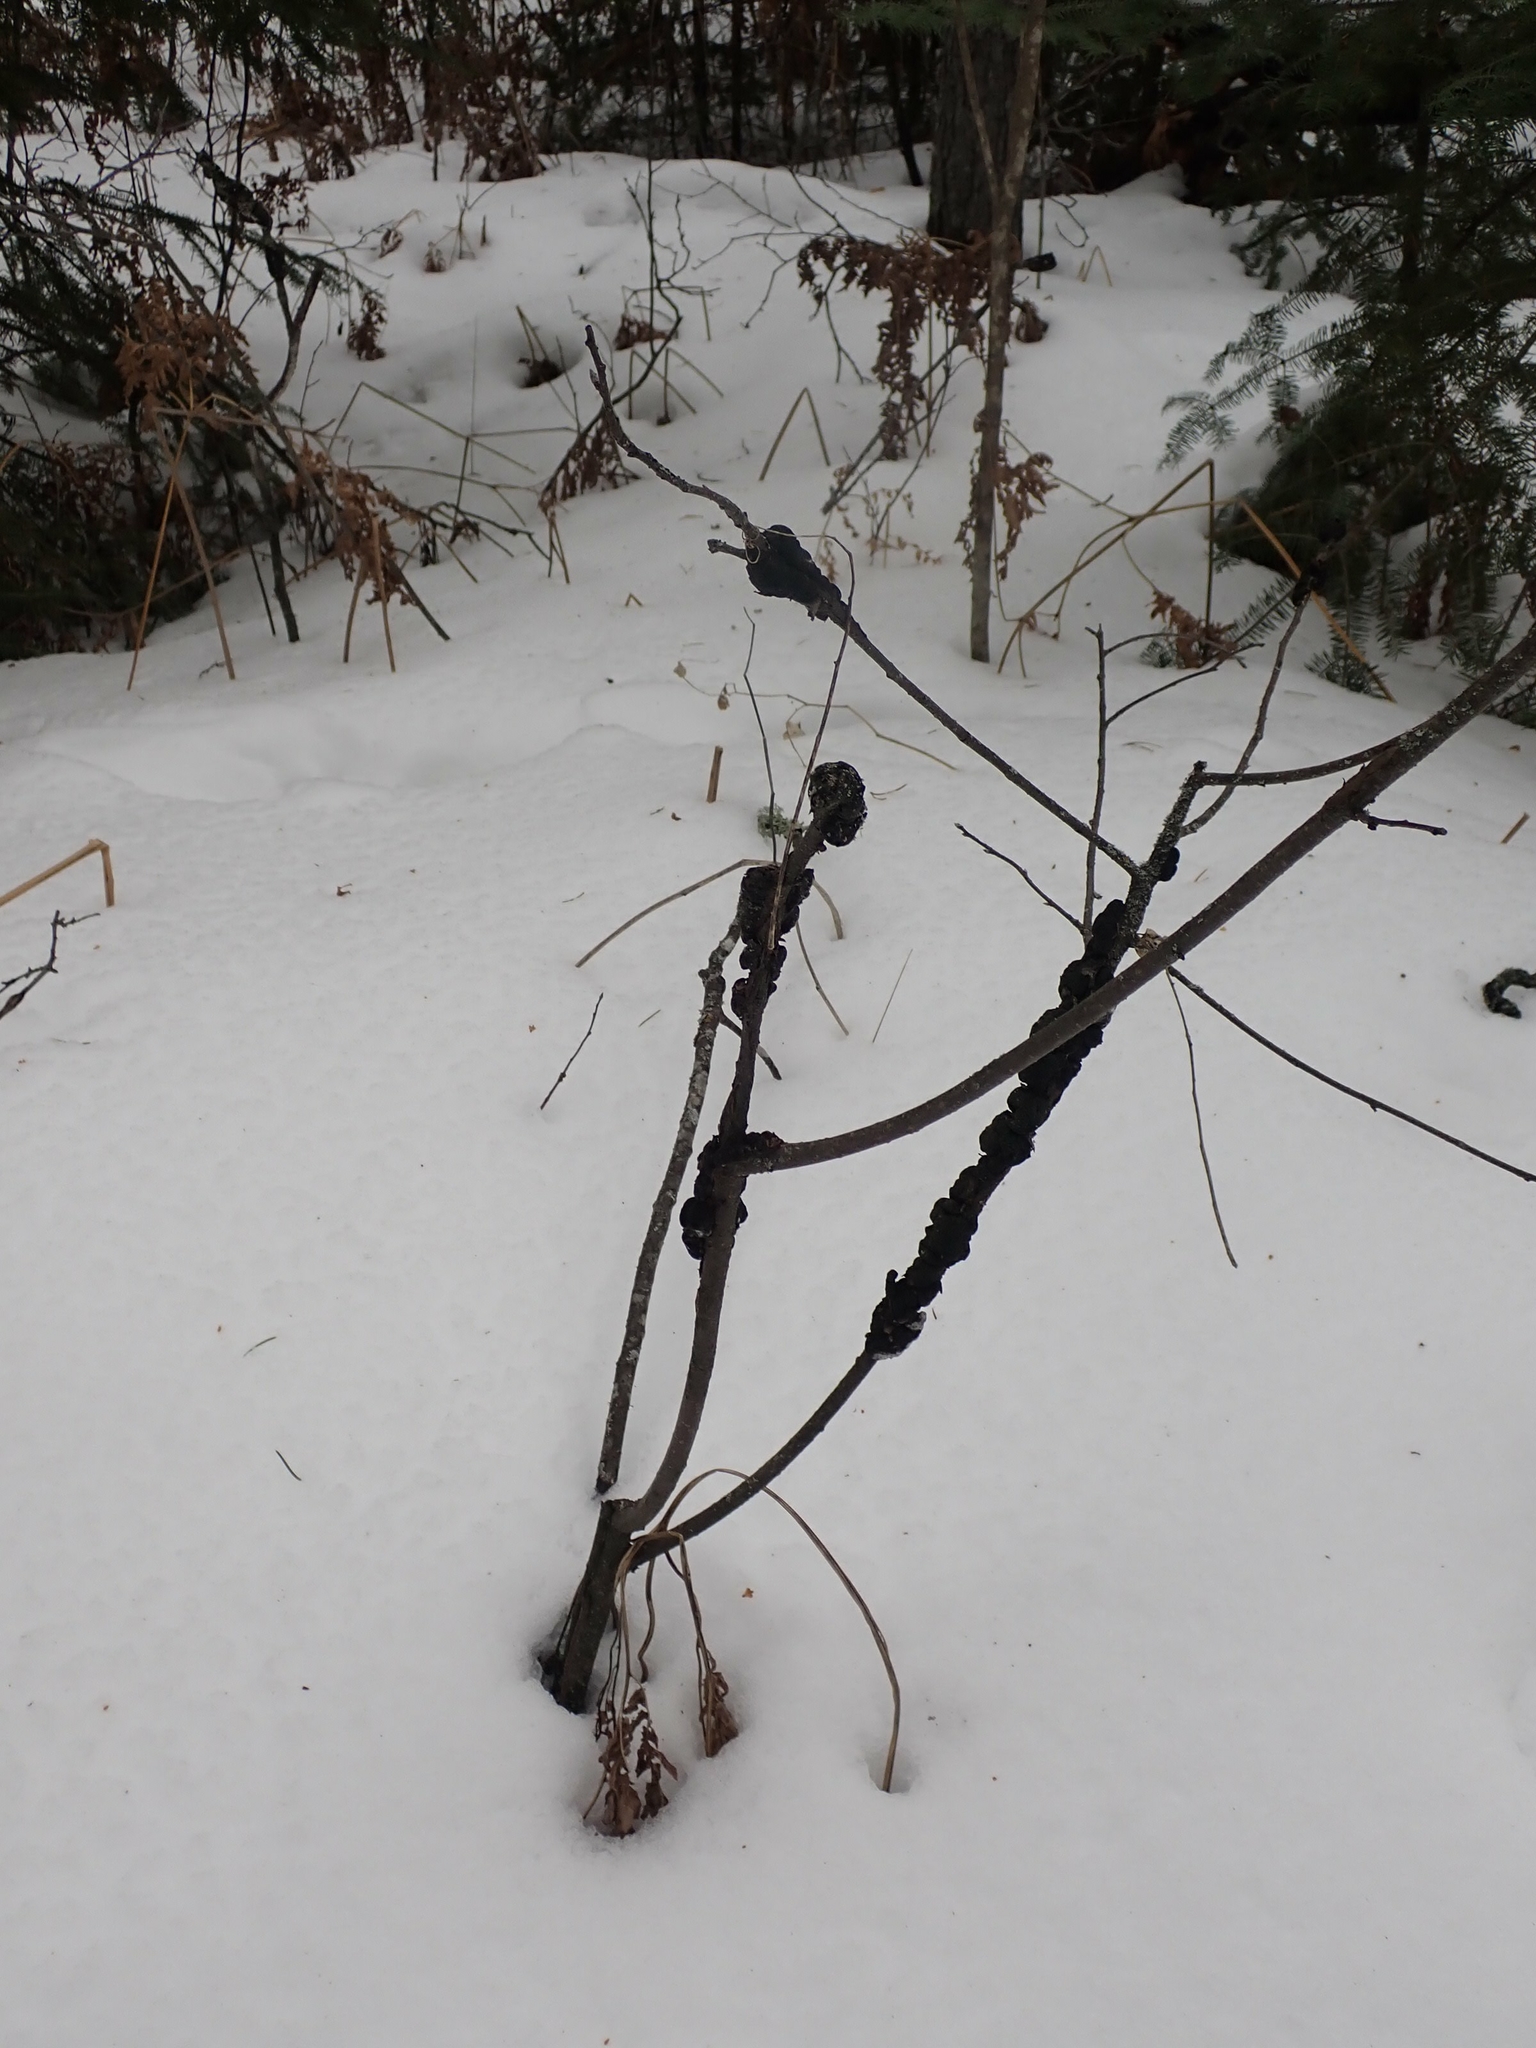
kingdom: Fungi
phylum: Ascomycota
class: Dothideomycetes
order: Venturiales
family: Venturiaceae
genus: Apiosporina
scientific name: Apiosporina morbosa
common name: Black knot
